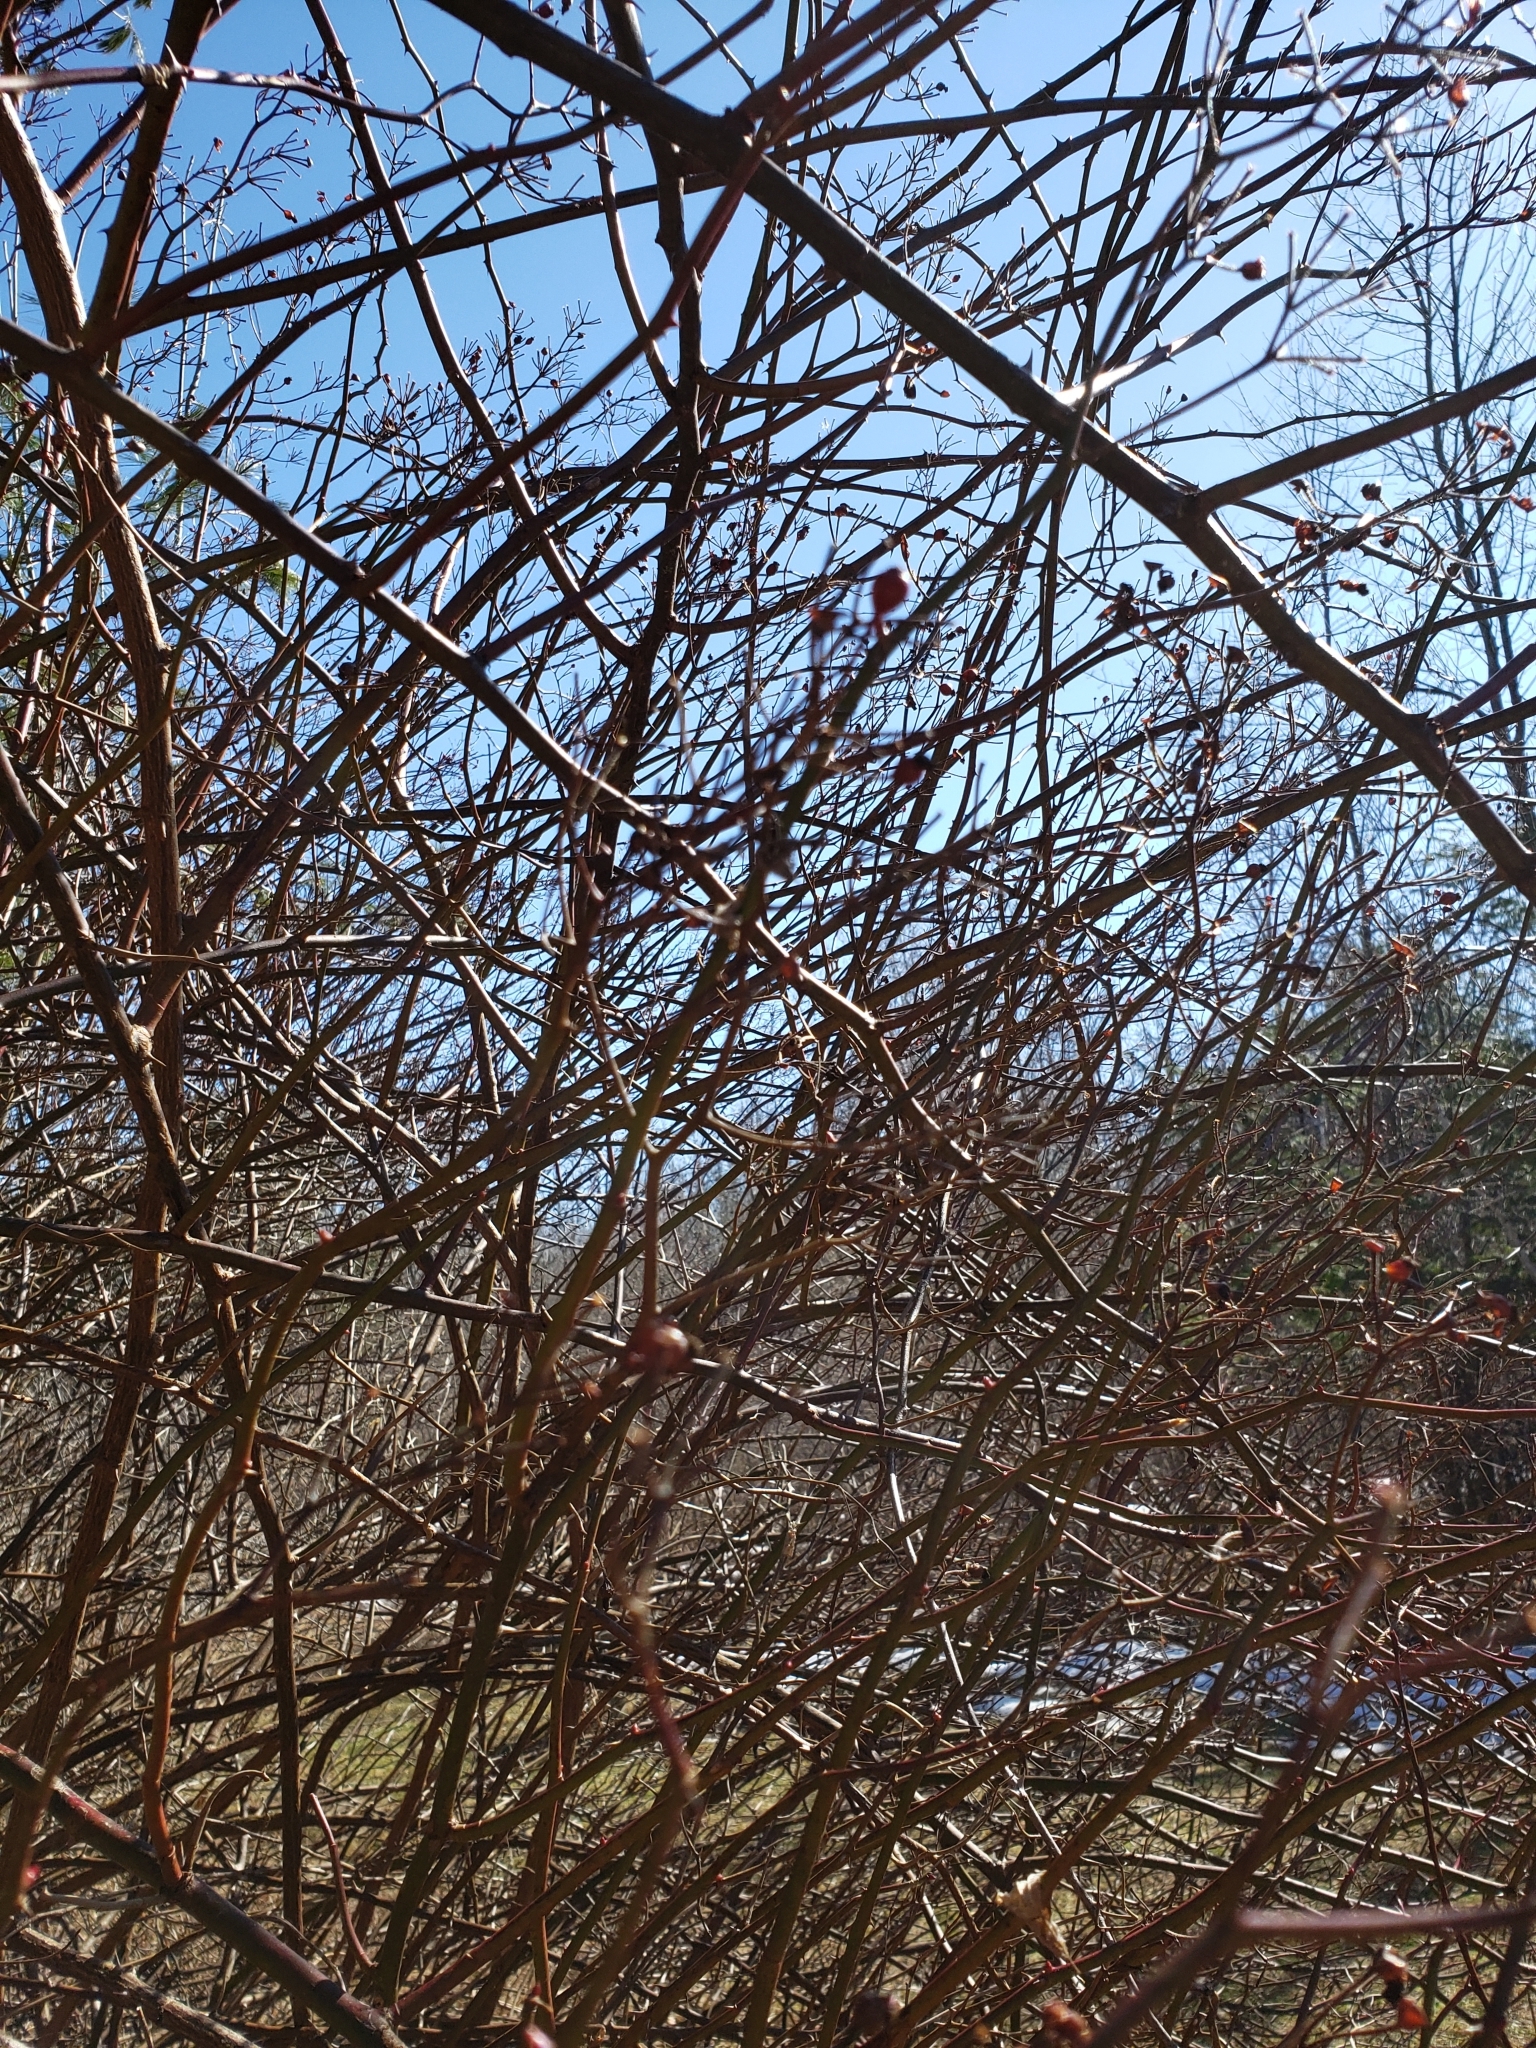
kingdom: Plantae
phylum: Tracheophyta
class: Magnoliopsida
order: Rosales
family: Rosaceae
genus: Rosa
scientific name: Rosa multiflora
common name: Multiflora rose
